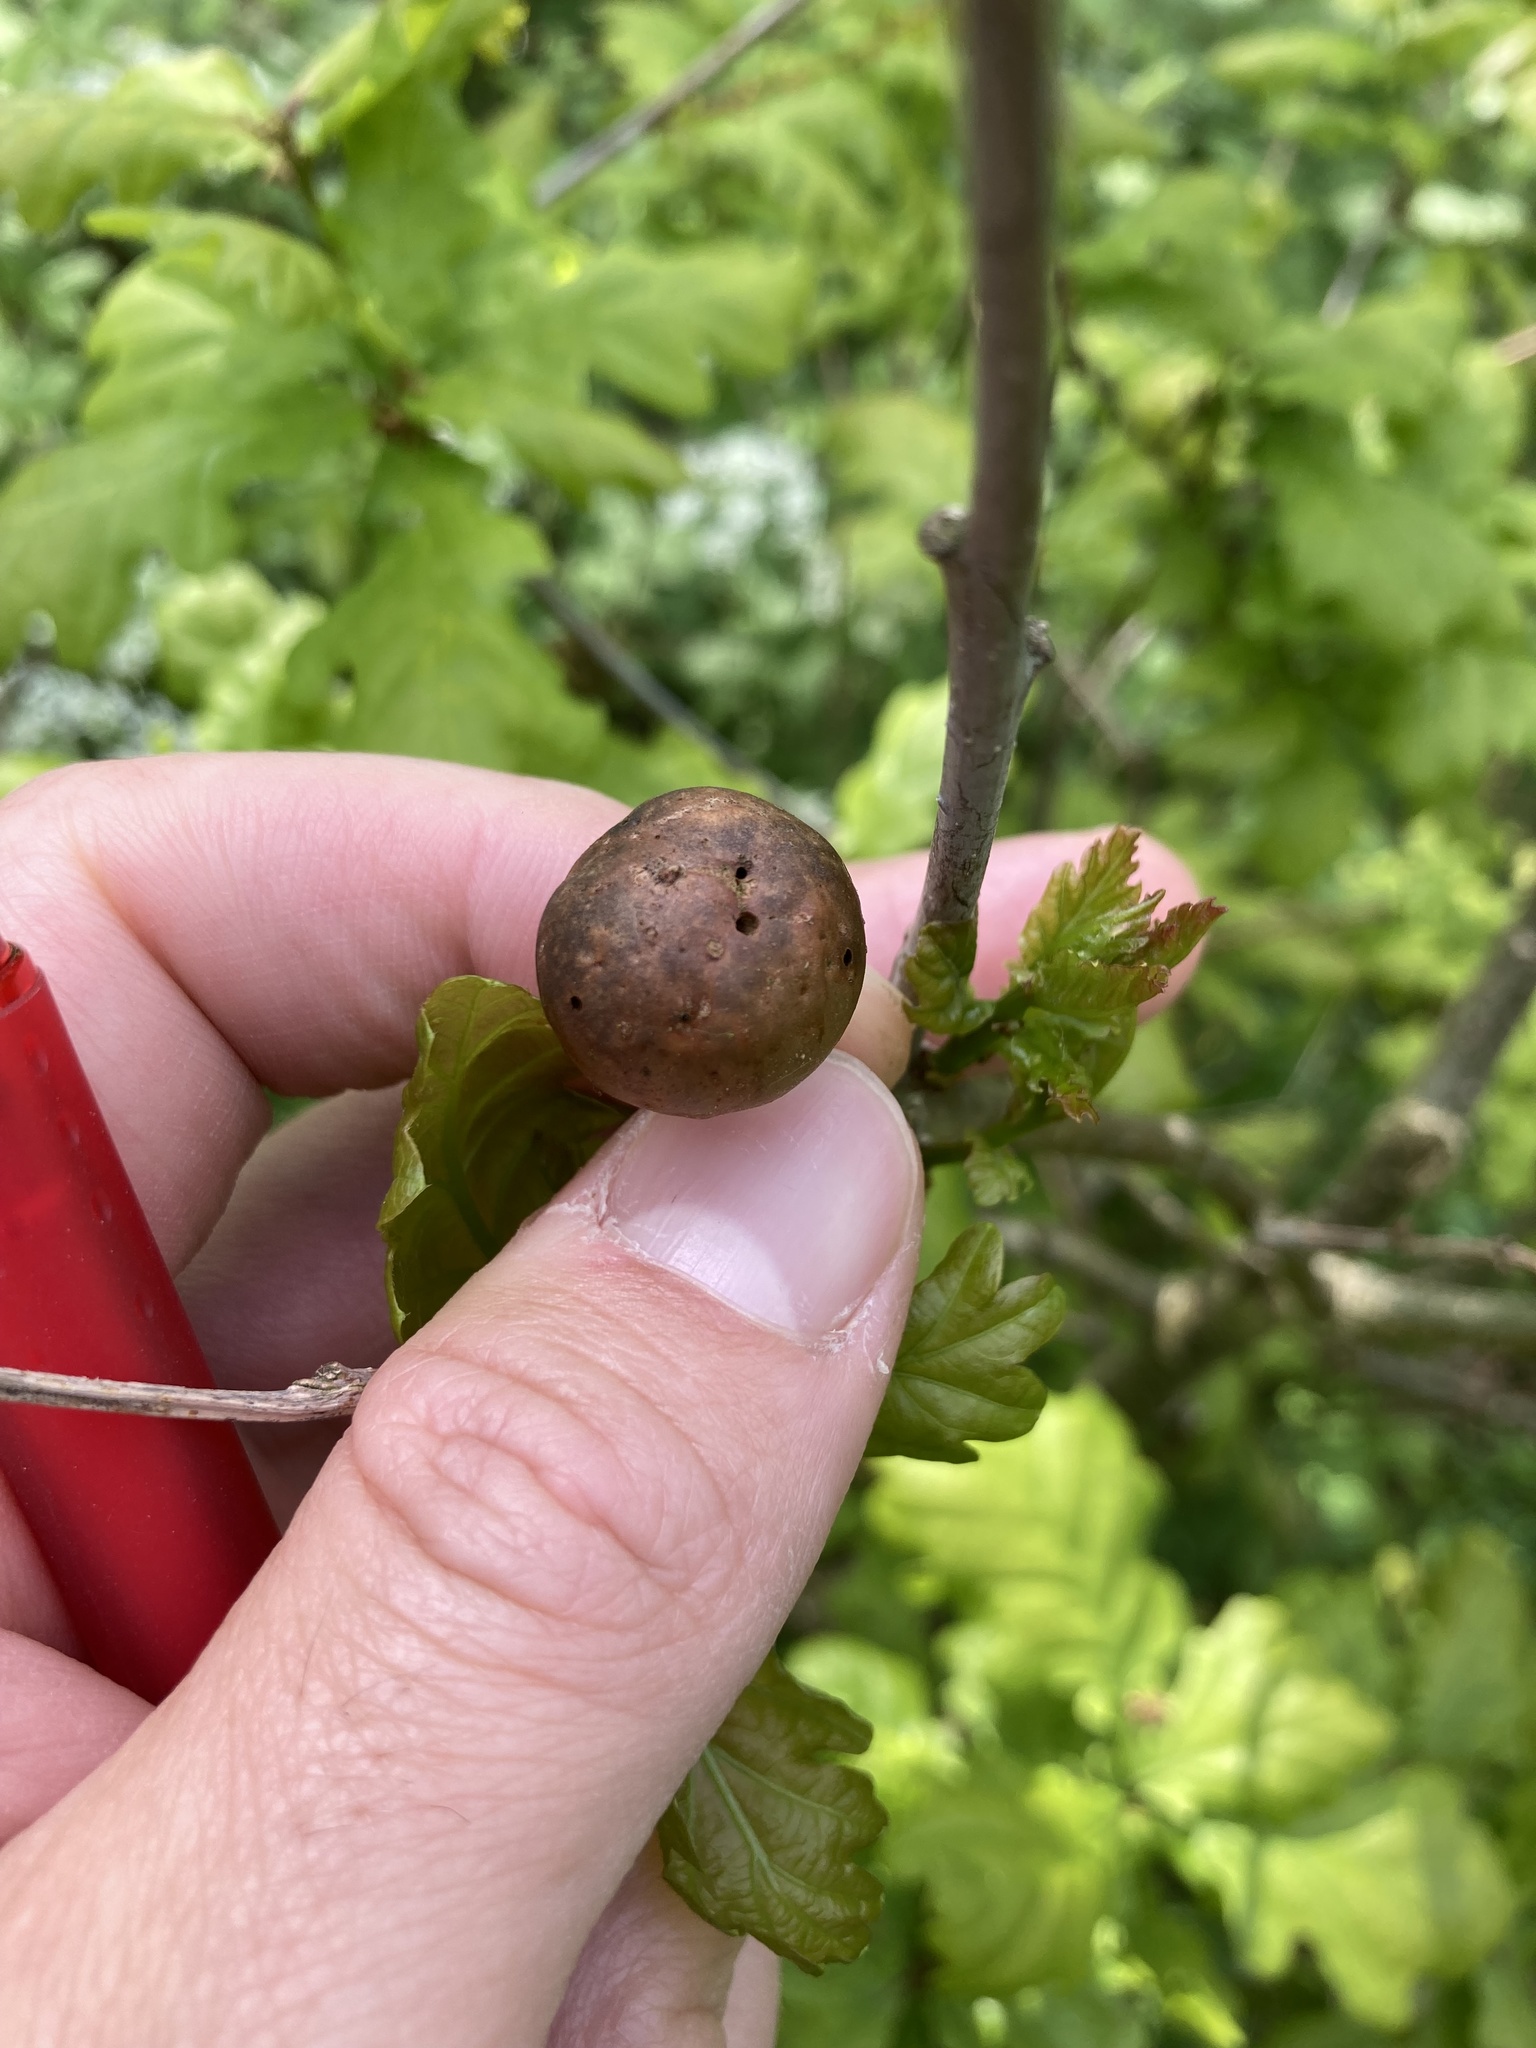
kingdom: Animalia
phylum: Arthropoda
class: Insecta
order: Hymenoptera
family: Cynipidae
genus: Andricus
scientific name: Andricus kollari
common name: Marble gall
